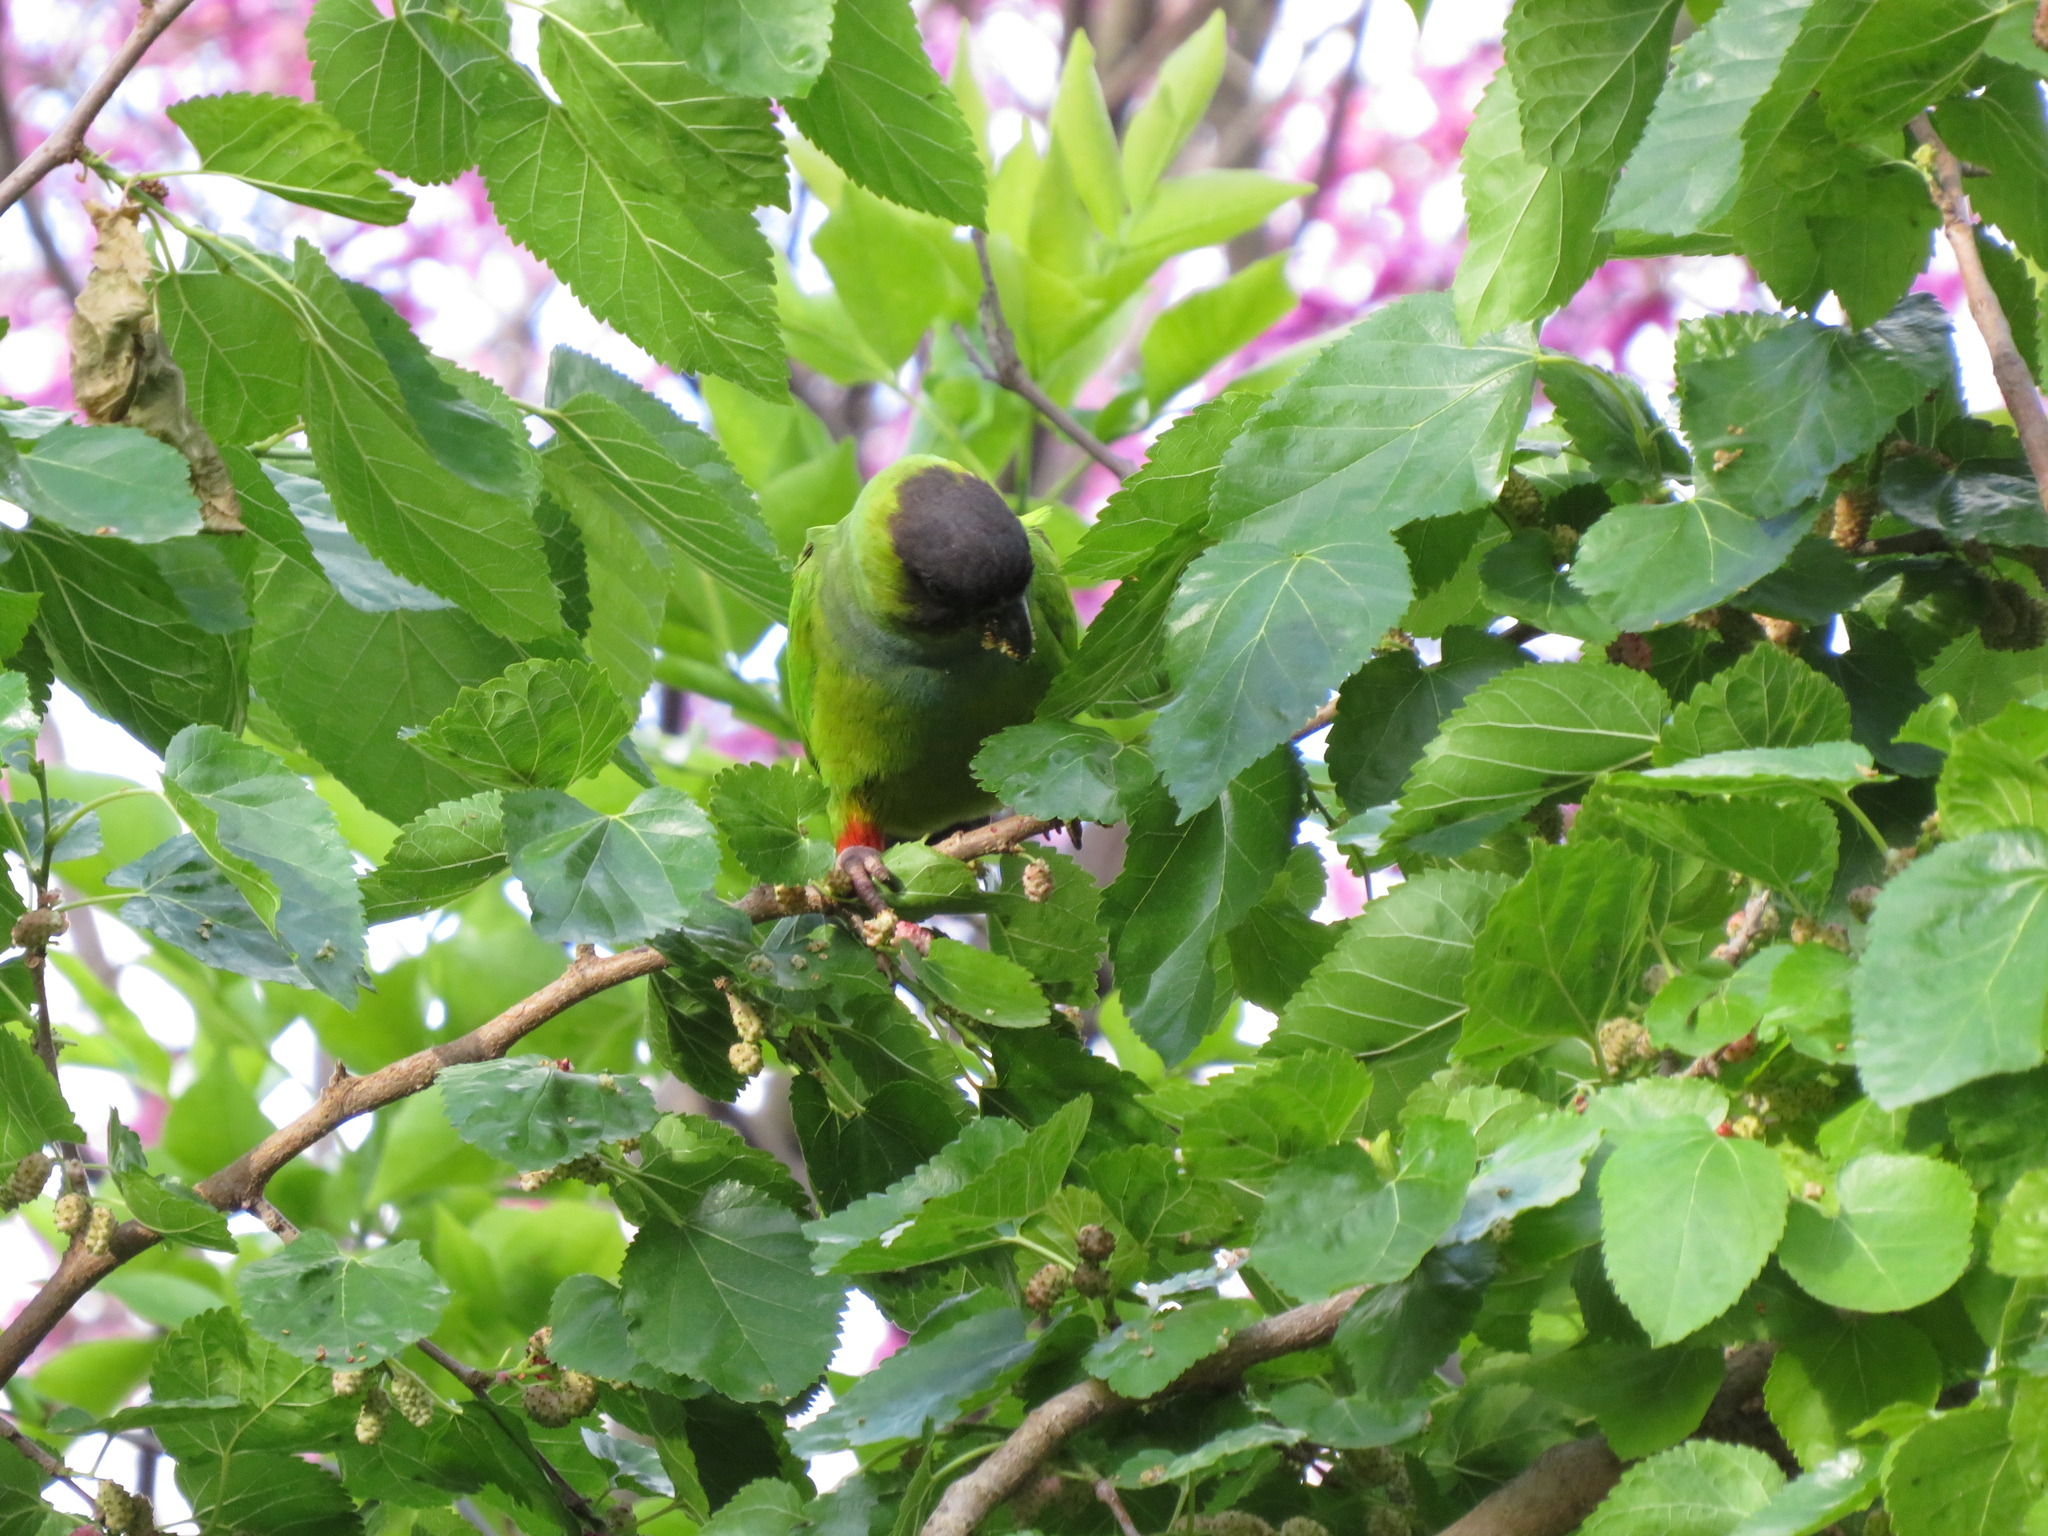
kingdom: Animalia
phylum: Chordata
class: Aves
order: Psittaciformes
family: Psittacidae
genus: Nandayus
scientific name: Nandayus nenday
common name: Nanday parakeet
